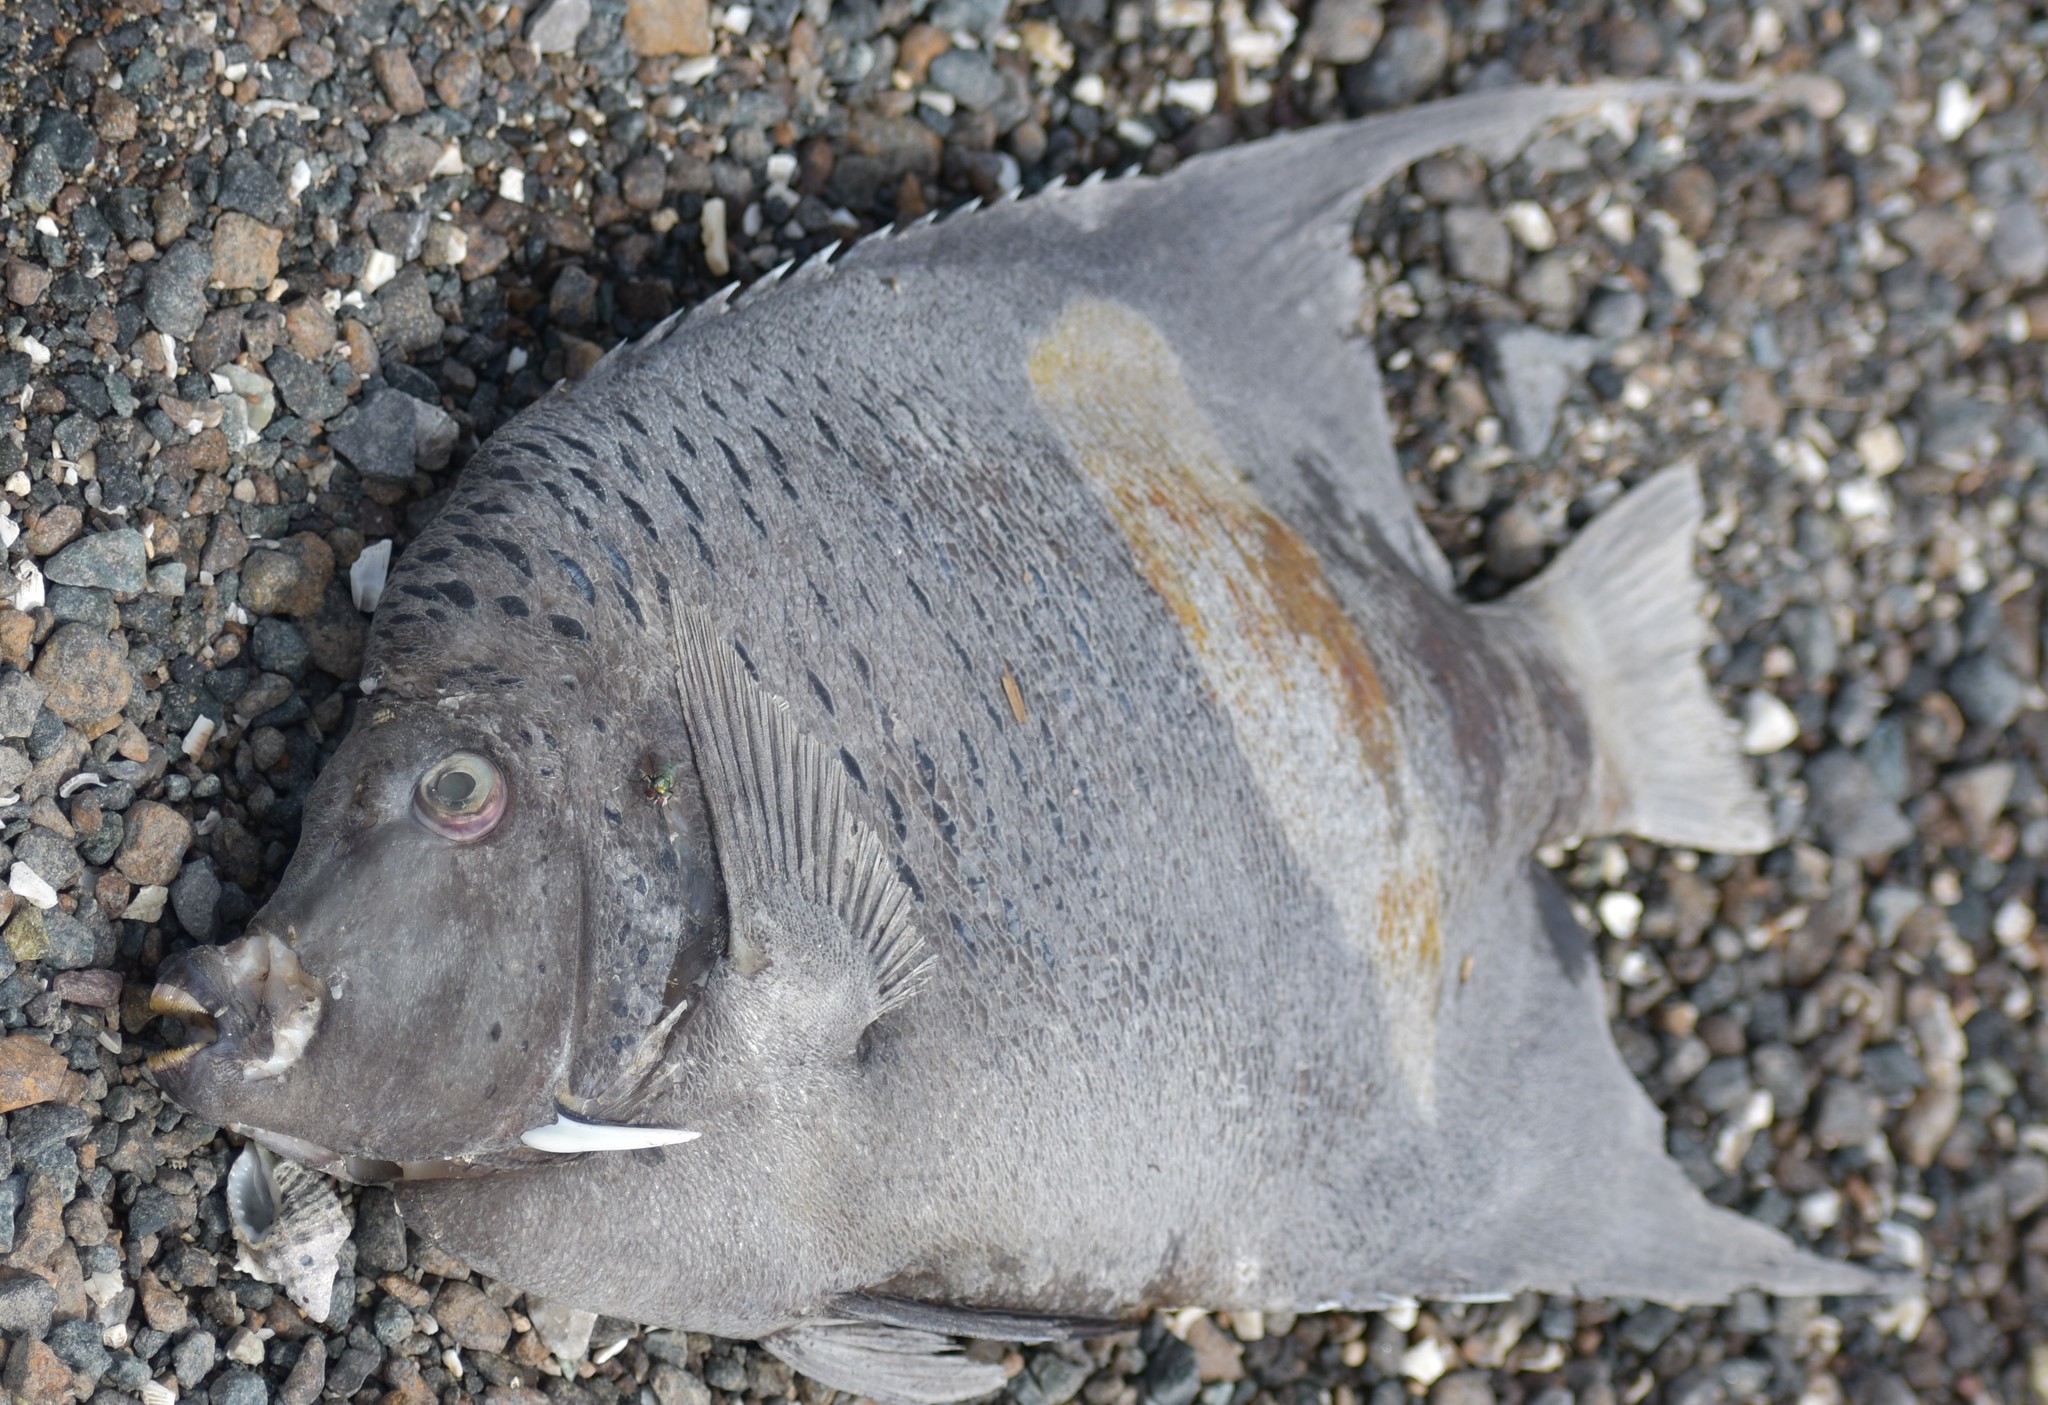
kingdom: Animalia
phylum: Chordata
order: Perciformes
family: Pomacanthidae
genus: Pomacanthus
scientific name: Pomacanthus maculosus
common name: Yellowbar angelfish
